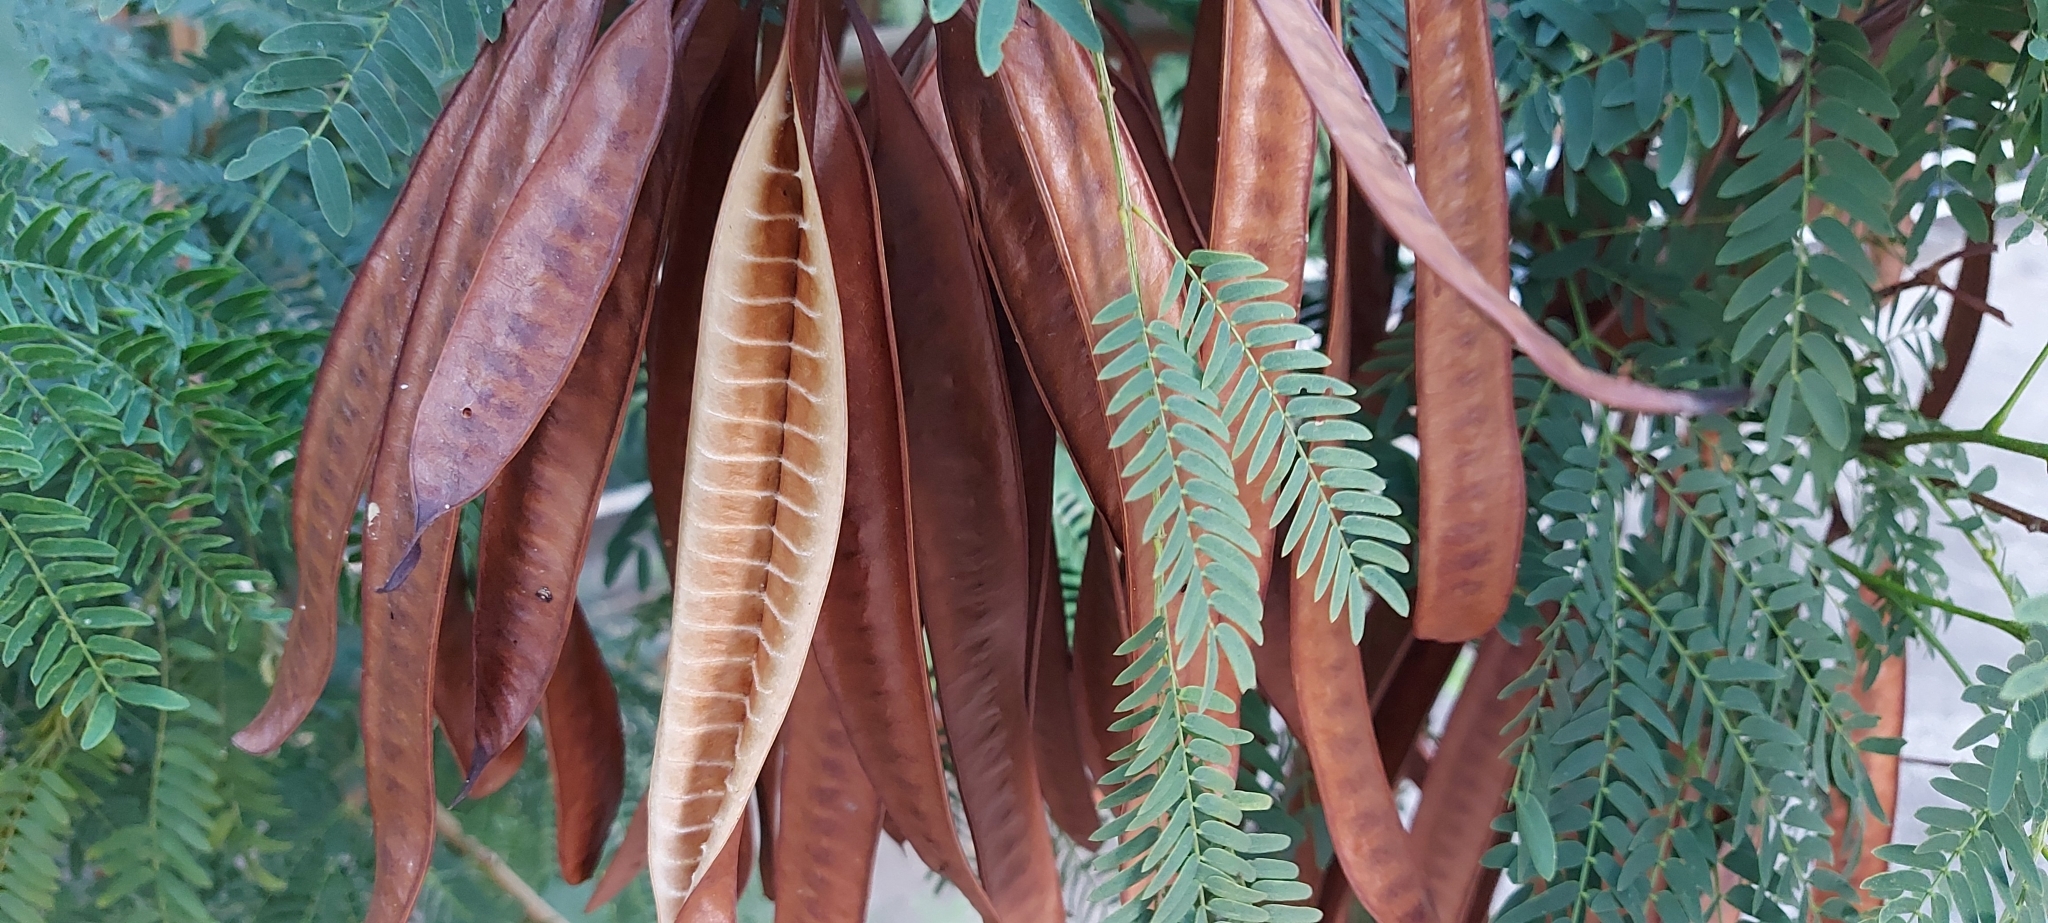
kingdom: Plantae
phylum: Tracheophyta
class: Magnoliopsida
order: Fabales
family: Fabaceae
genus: Leucaena
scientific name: Leucaena leucocephala
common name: White leadtree
